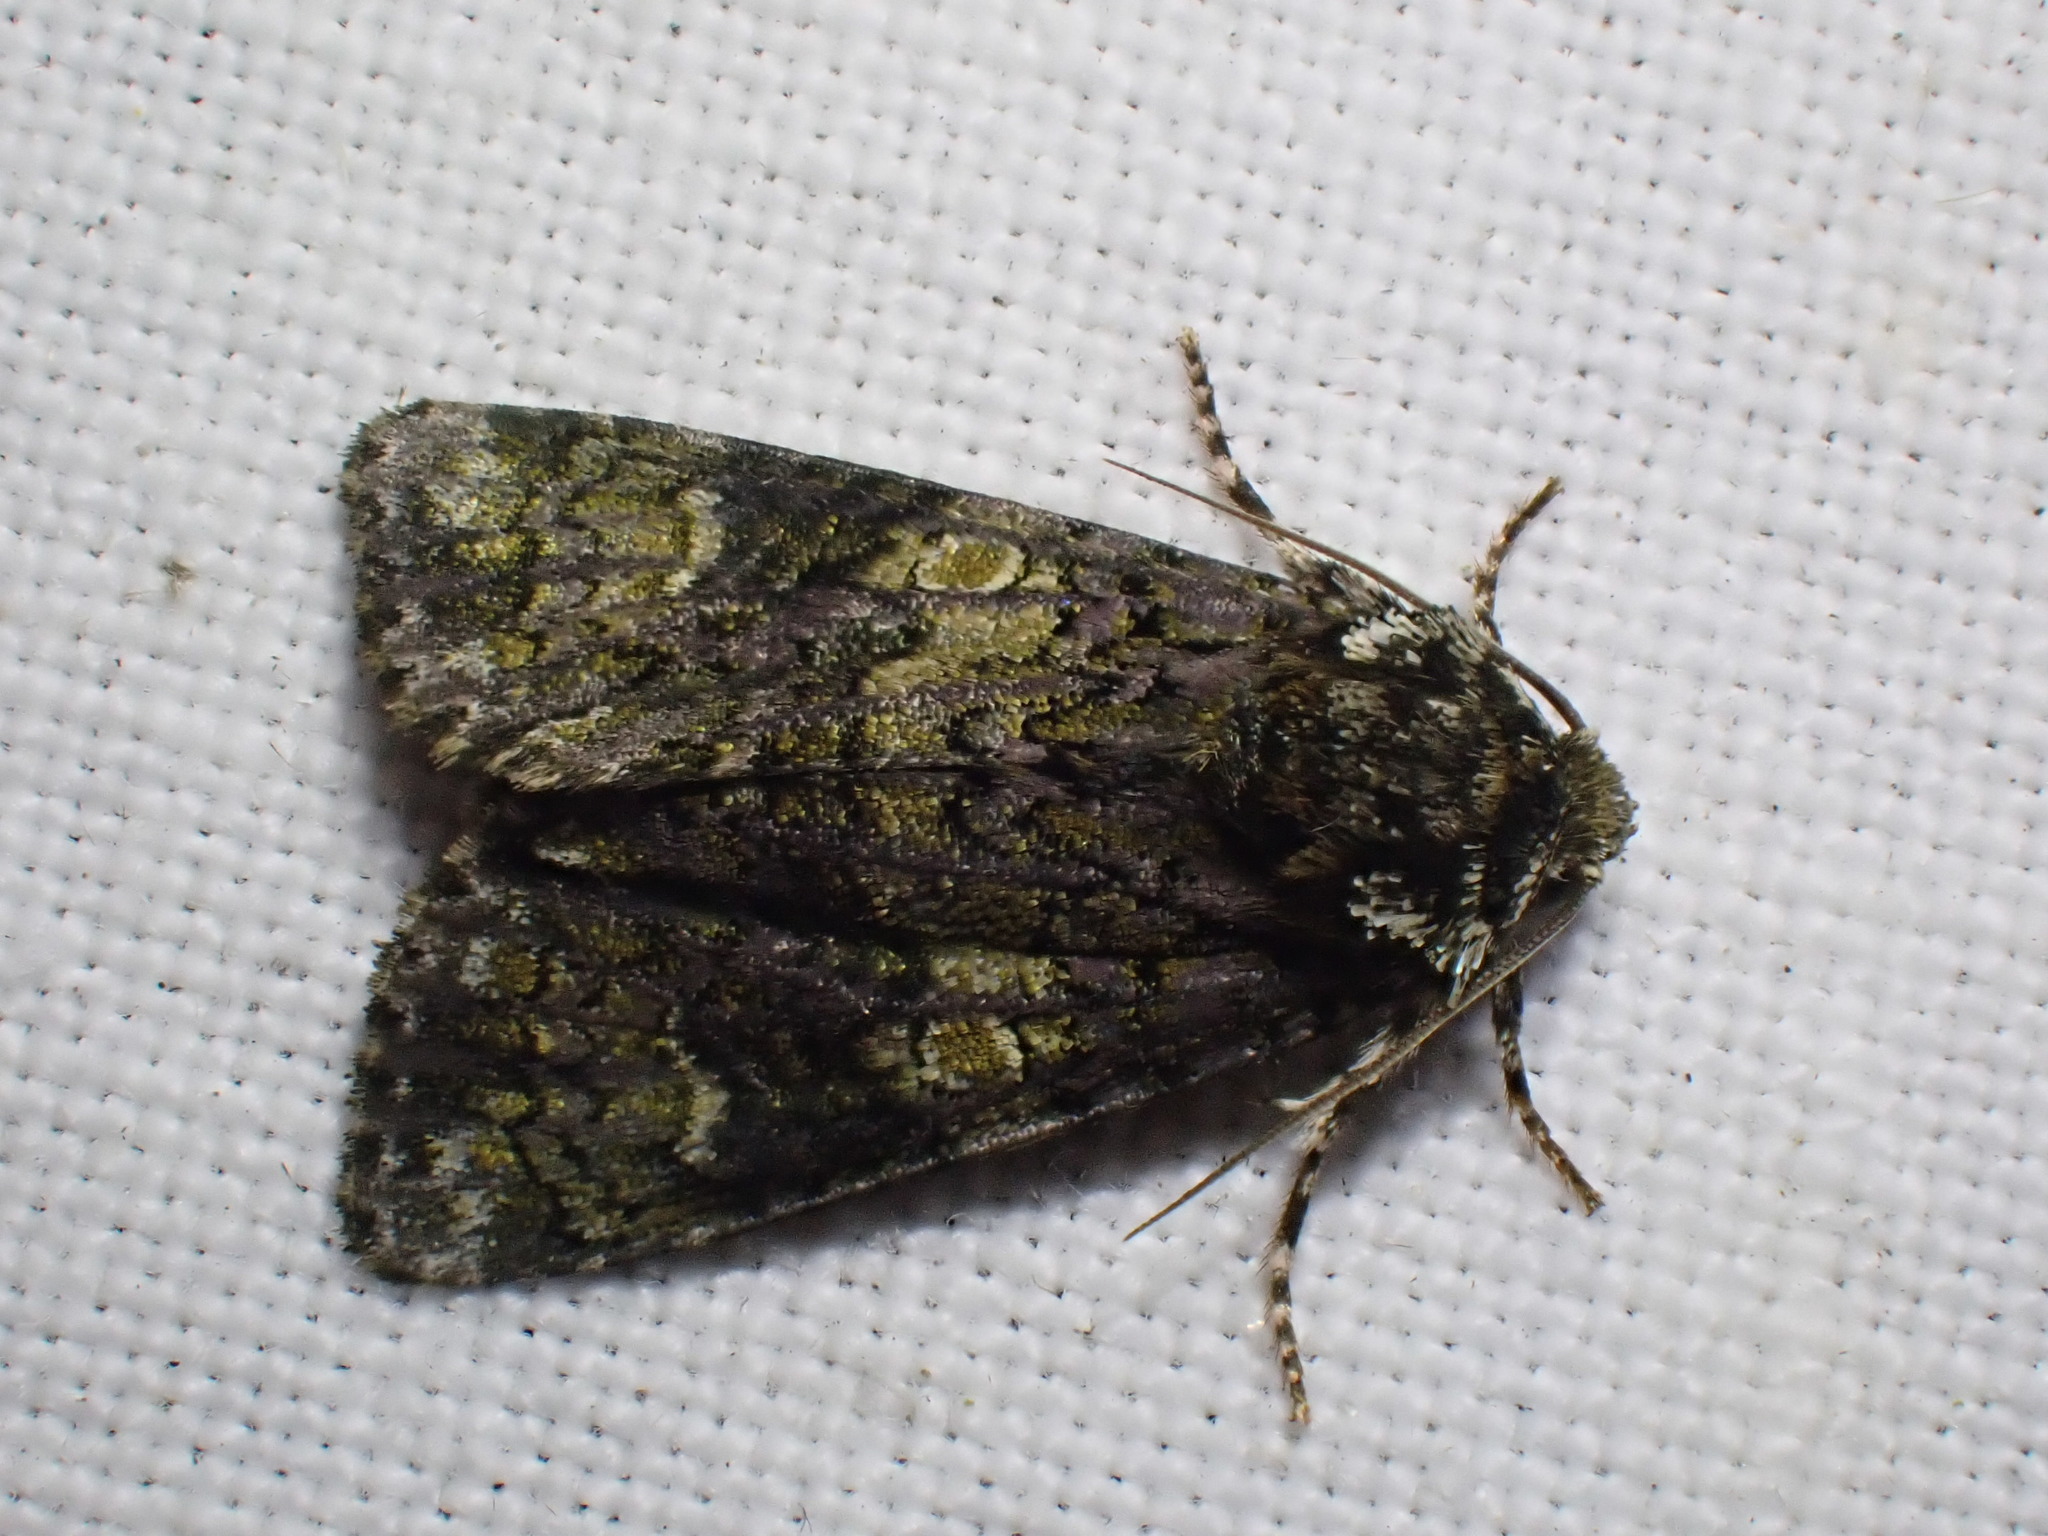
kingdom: Animalia
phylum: Arthropoda
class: Insecta
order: Lepidoptera
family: Noctuidae
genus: Craniophora
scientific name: Craniophora ligustri
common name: Coronet
